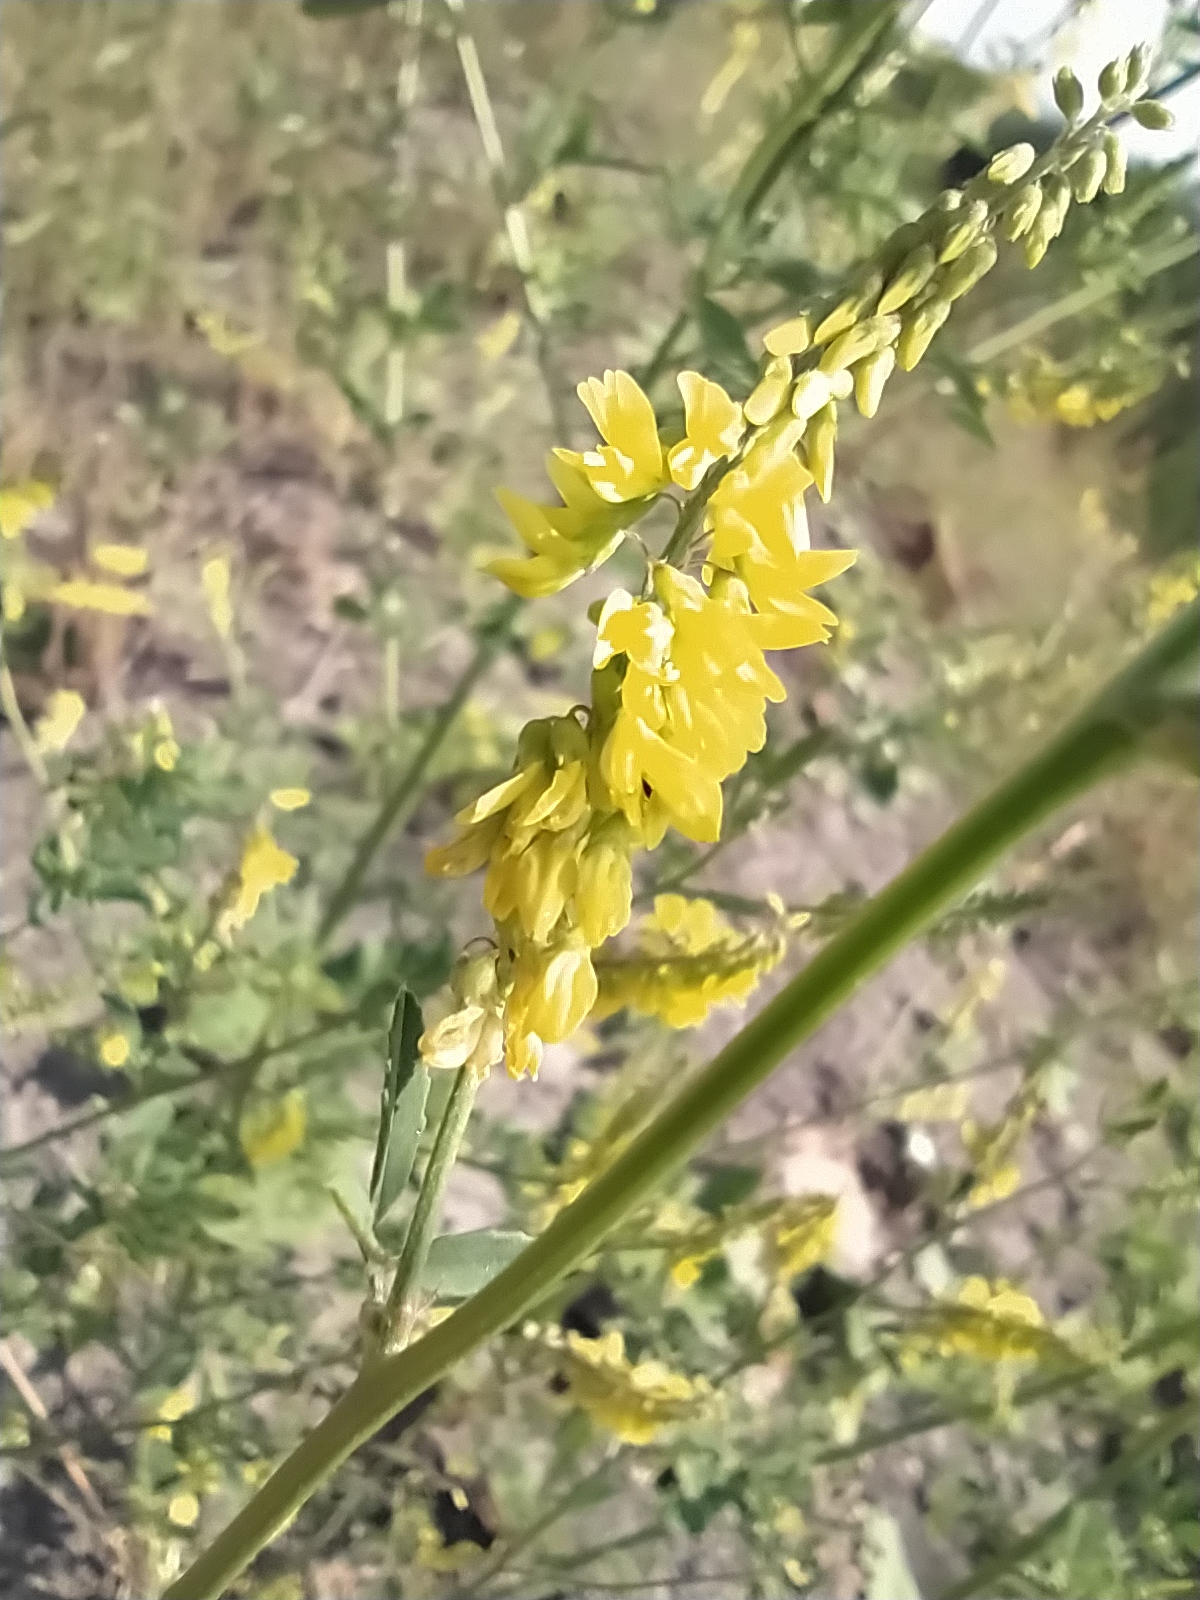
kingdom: Plantae
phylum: Tracheophyta
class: Magnoliopsida
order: Fabales
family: Fabaceae
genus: Melilotus
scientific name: Melilotus officinalis
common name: Sweetclover
